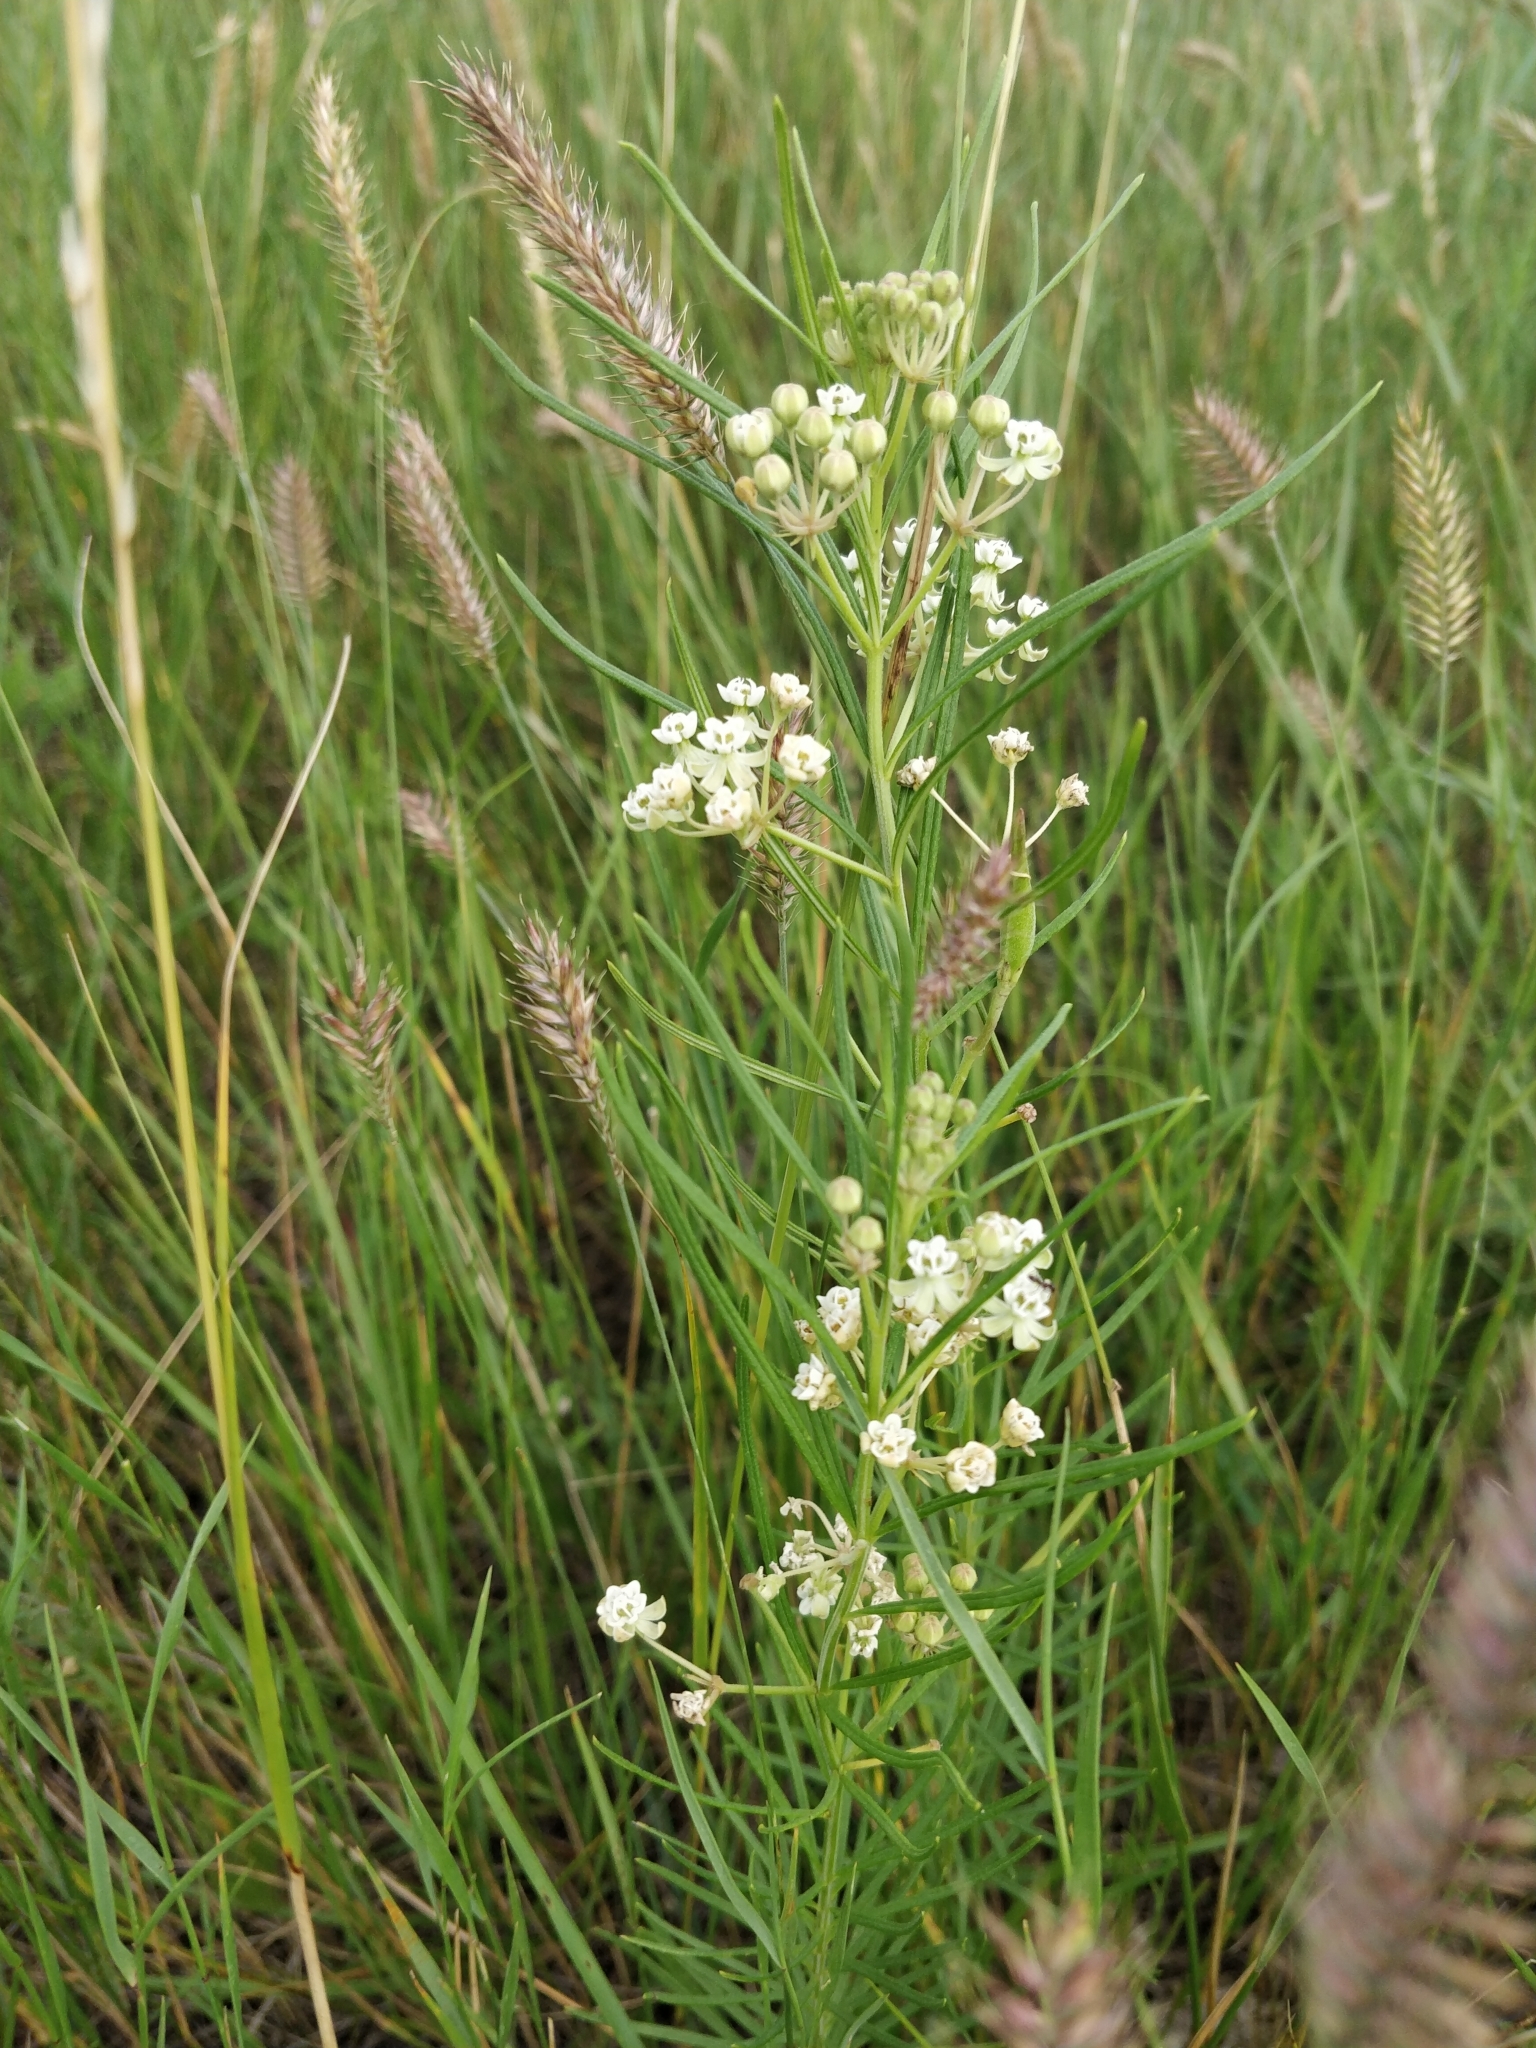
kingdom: Plantae
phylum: Tracheophyta
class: Magnoliopsida
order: Gentianales
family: Apocynaceae
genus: Asclepias
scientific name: Asclepias verticillata
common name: Eastern whorled milkweed
